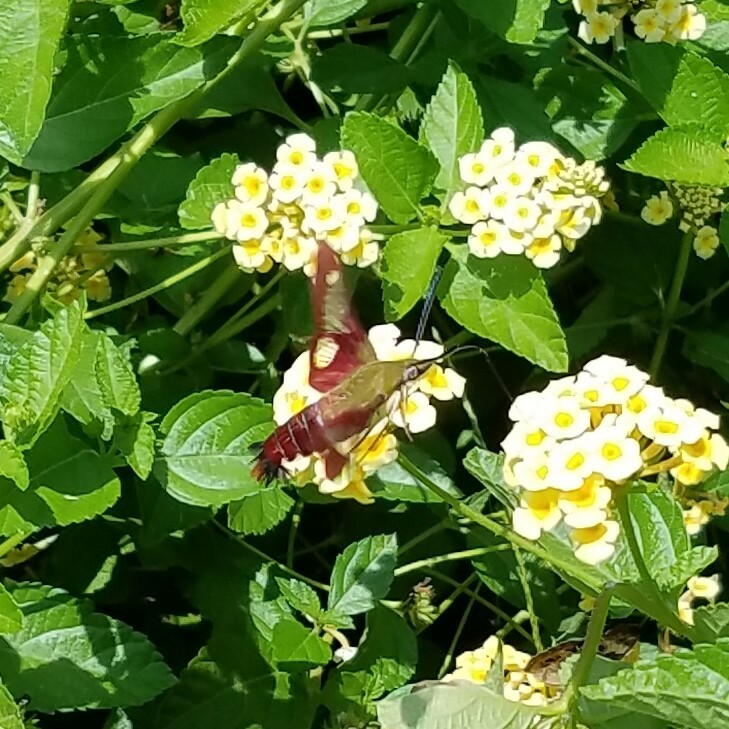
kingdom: Animalia
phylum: Arthropoda
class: Insecta
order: Lepidoptera
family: Sphingidae
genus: Hemaris
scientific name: Hemaris thysbe
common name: Common clear-wing
